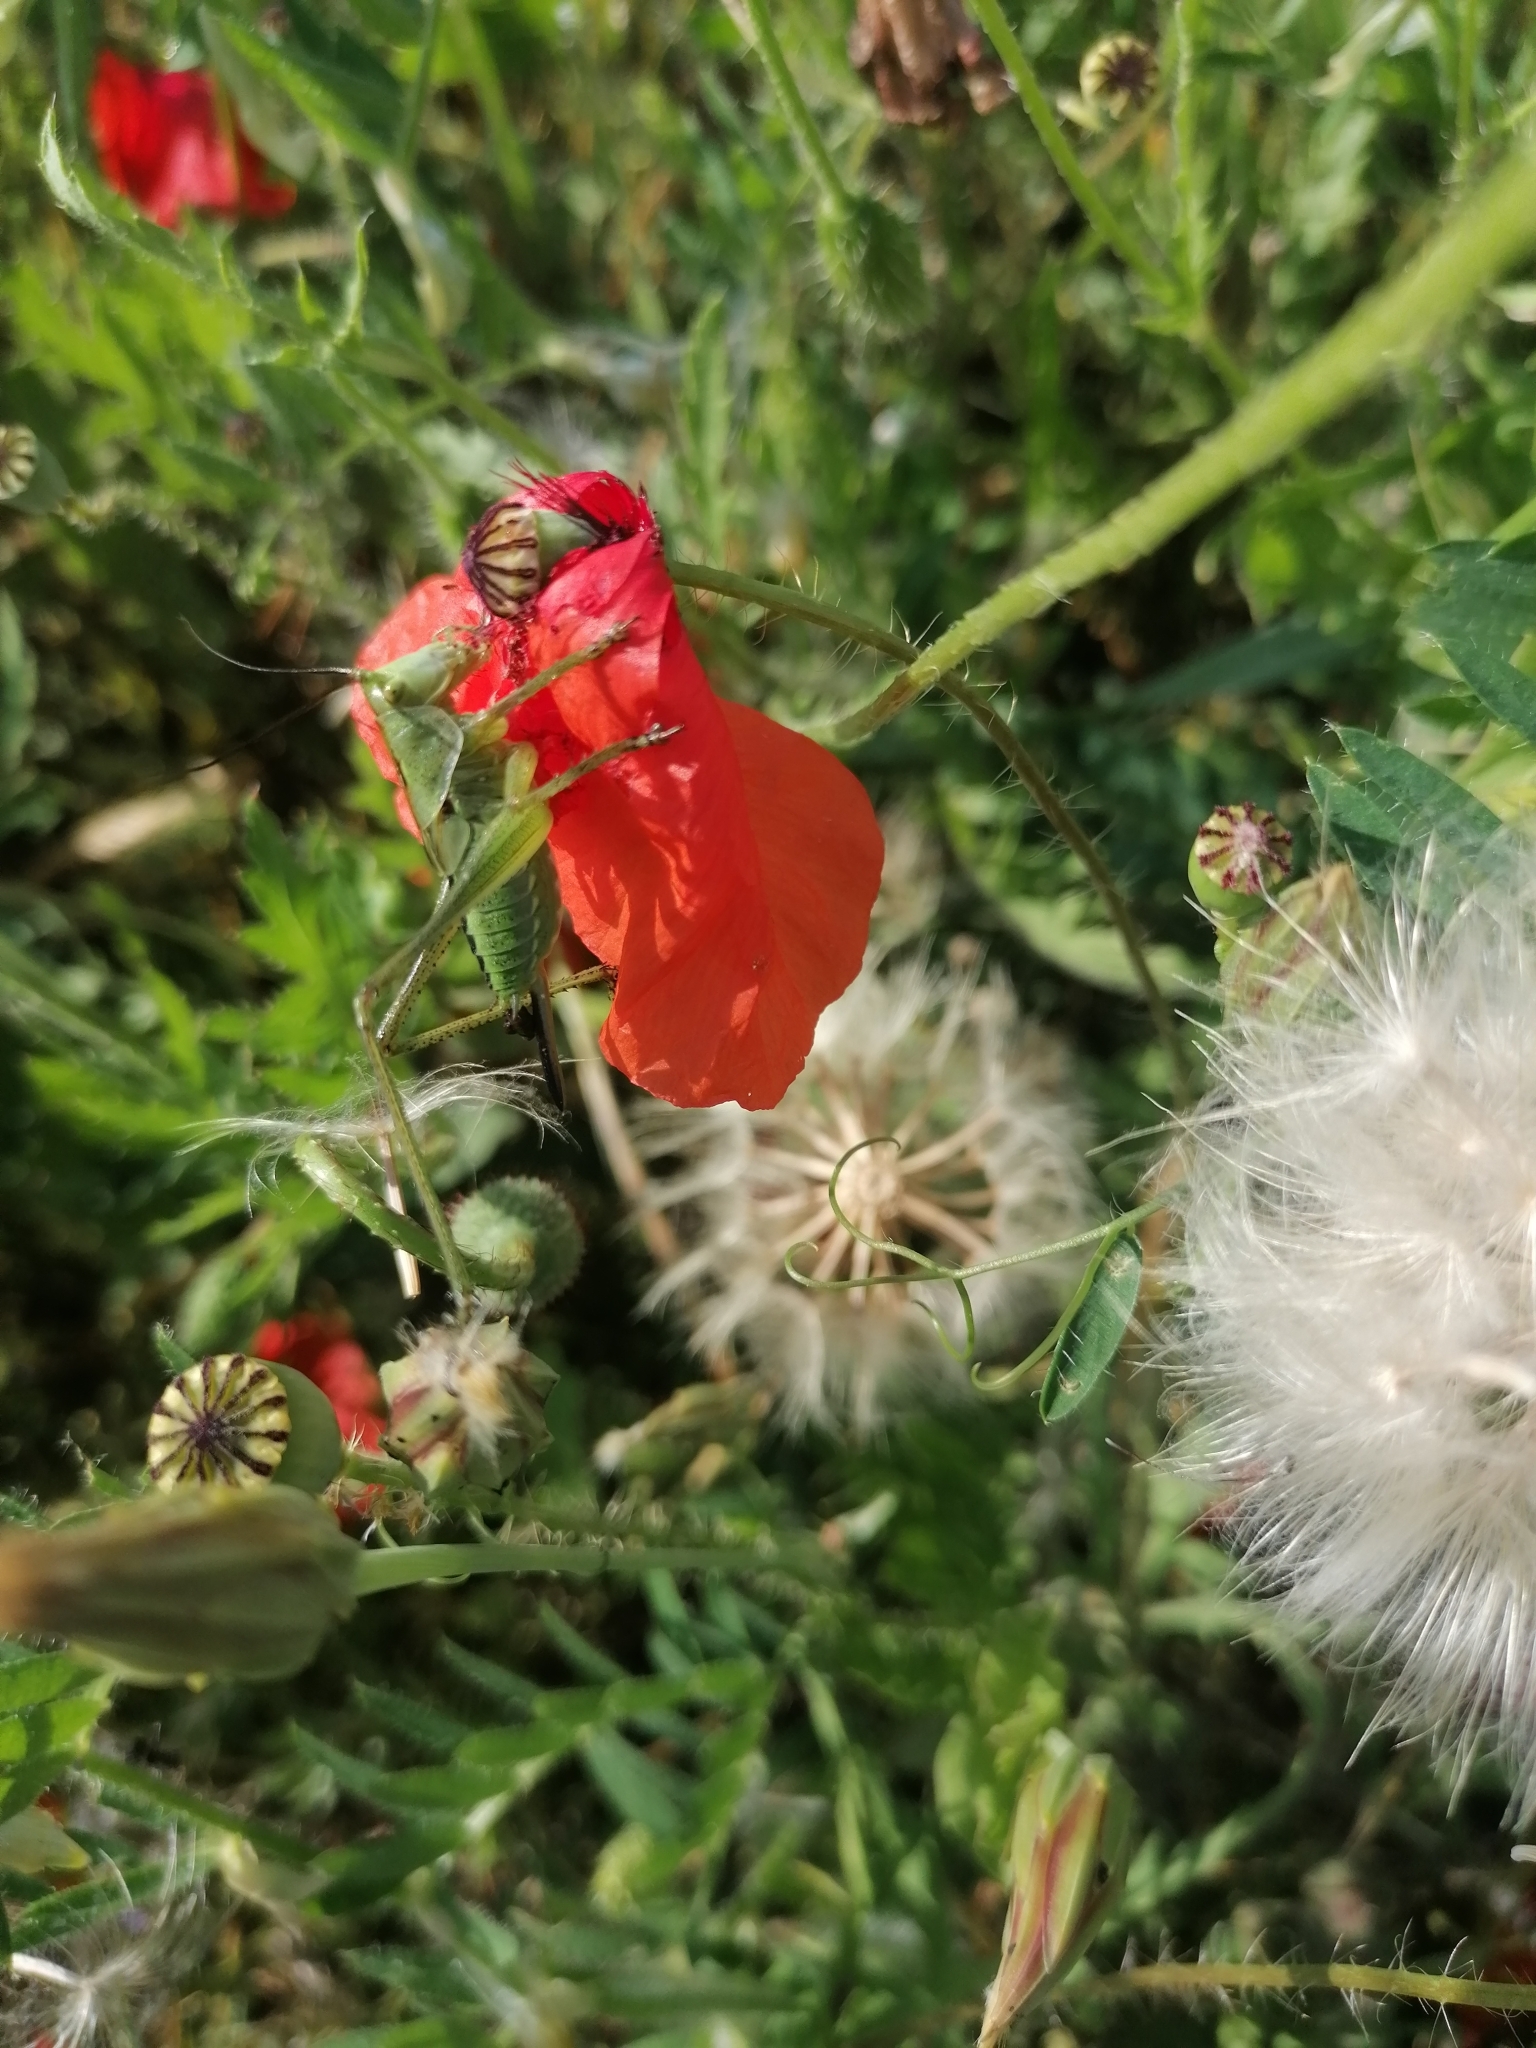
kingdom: Animalia
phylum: Arthropoda
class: Insecta
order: Orthoptera
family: Tettigoniidae
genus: Tettigonia
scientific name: Tettigonia viridissima
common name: Great green bush-cricket
